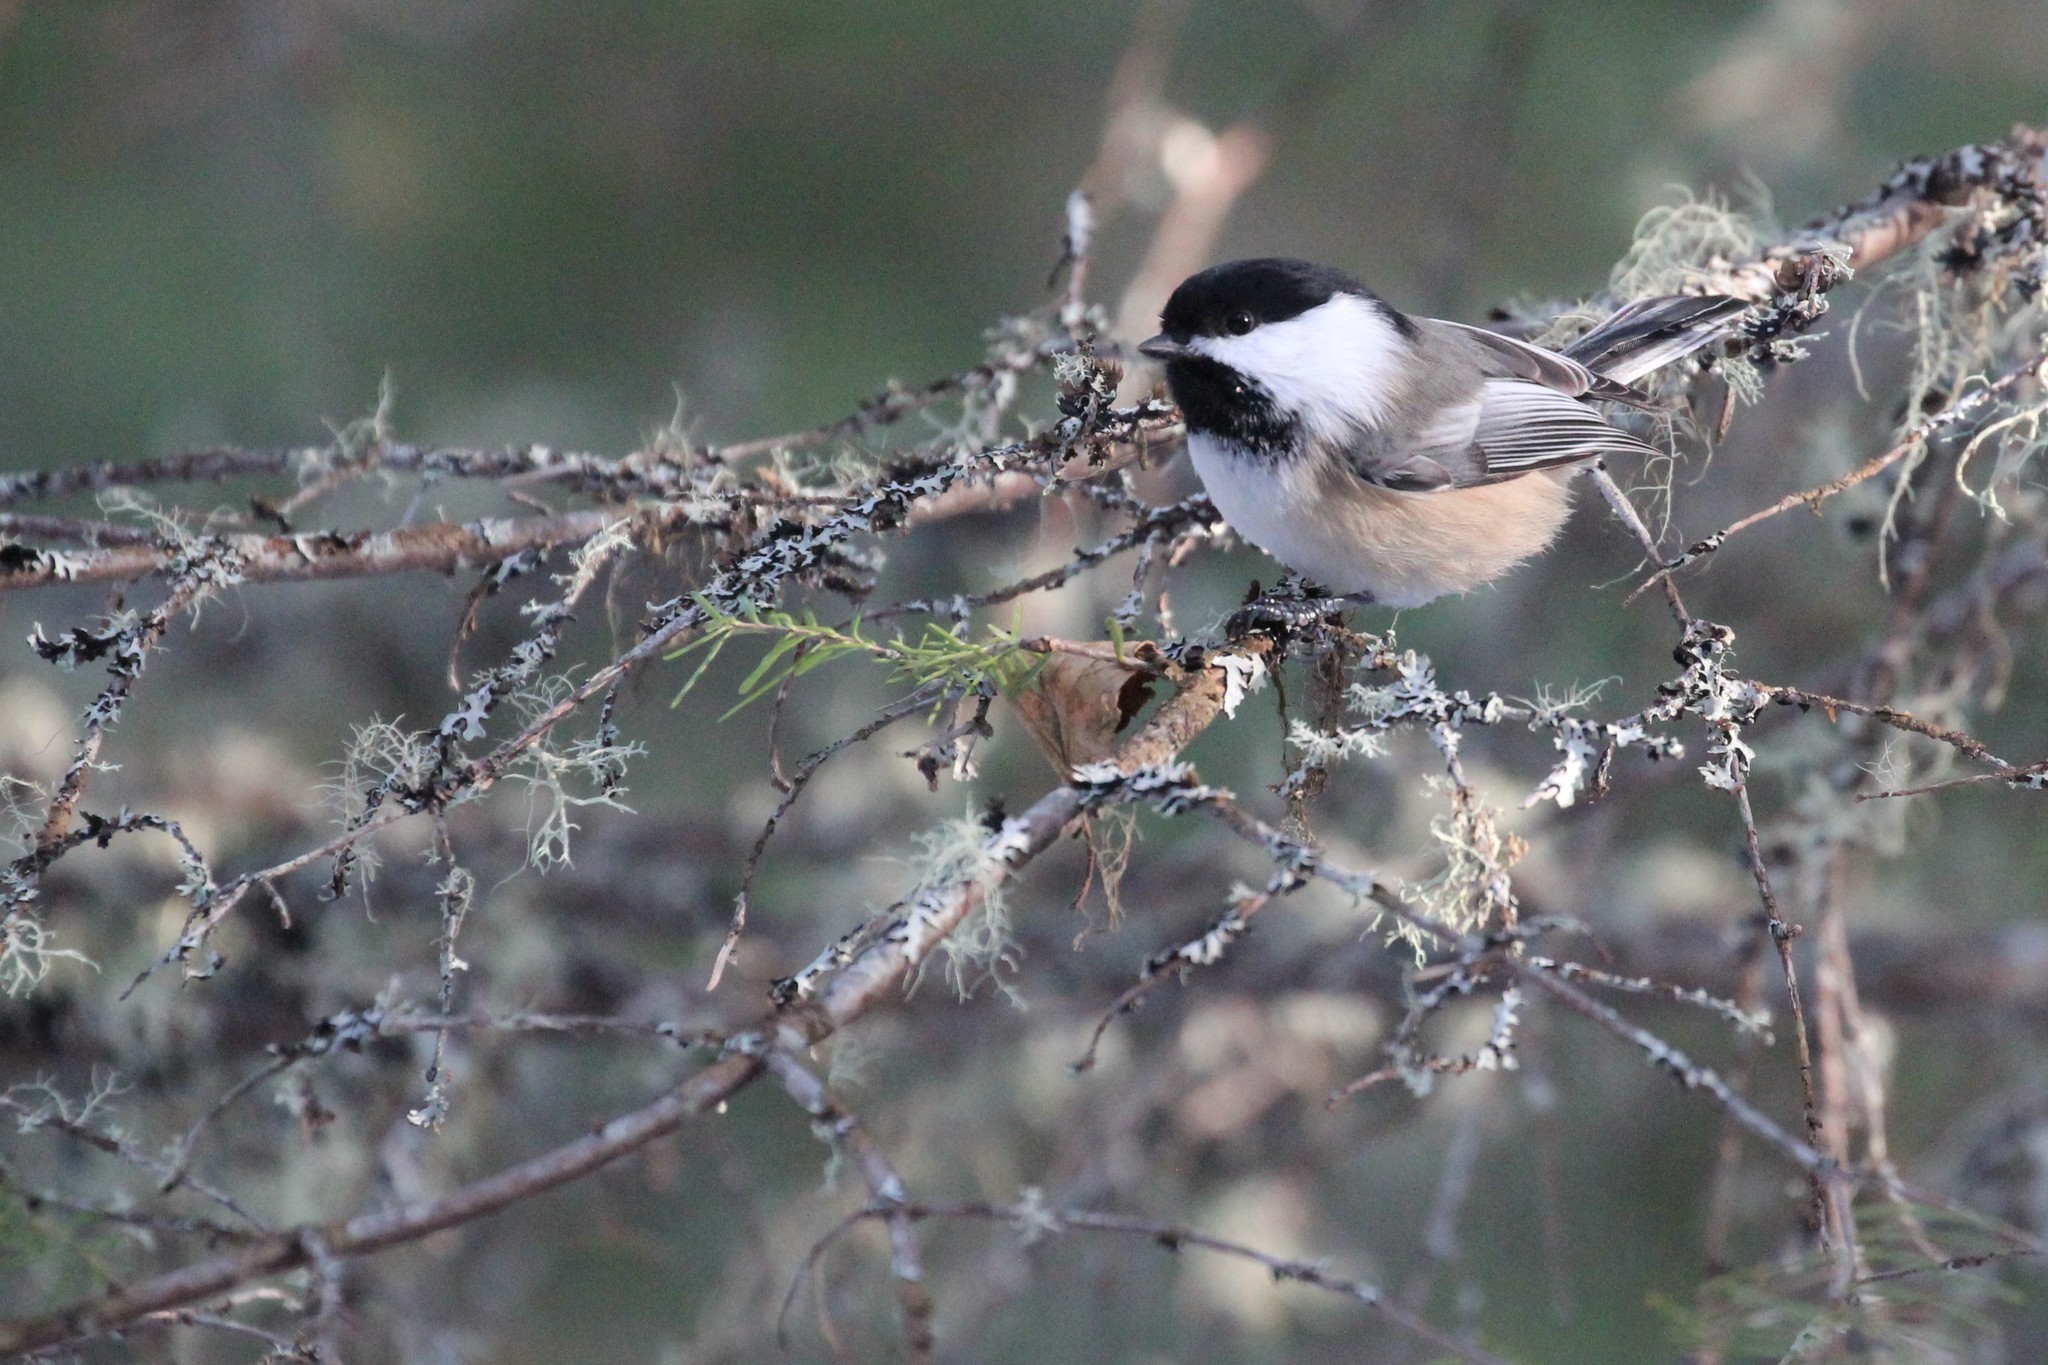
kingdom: Animalia
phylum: Chordata
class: Aves
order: Passeriformes
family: Paridae
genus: Poecile
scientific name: Poecile atricapillus
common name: Black-capped chickadee
